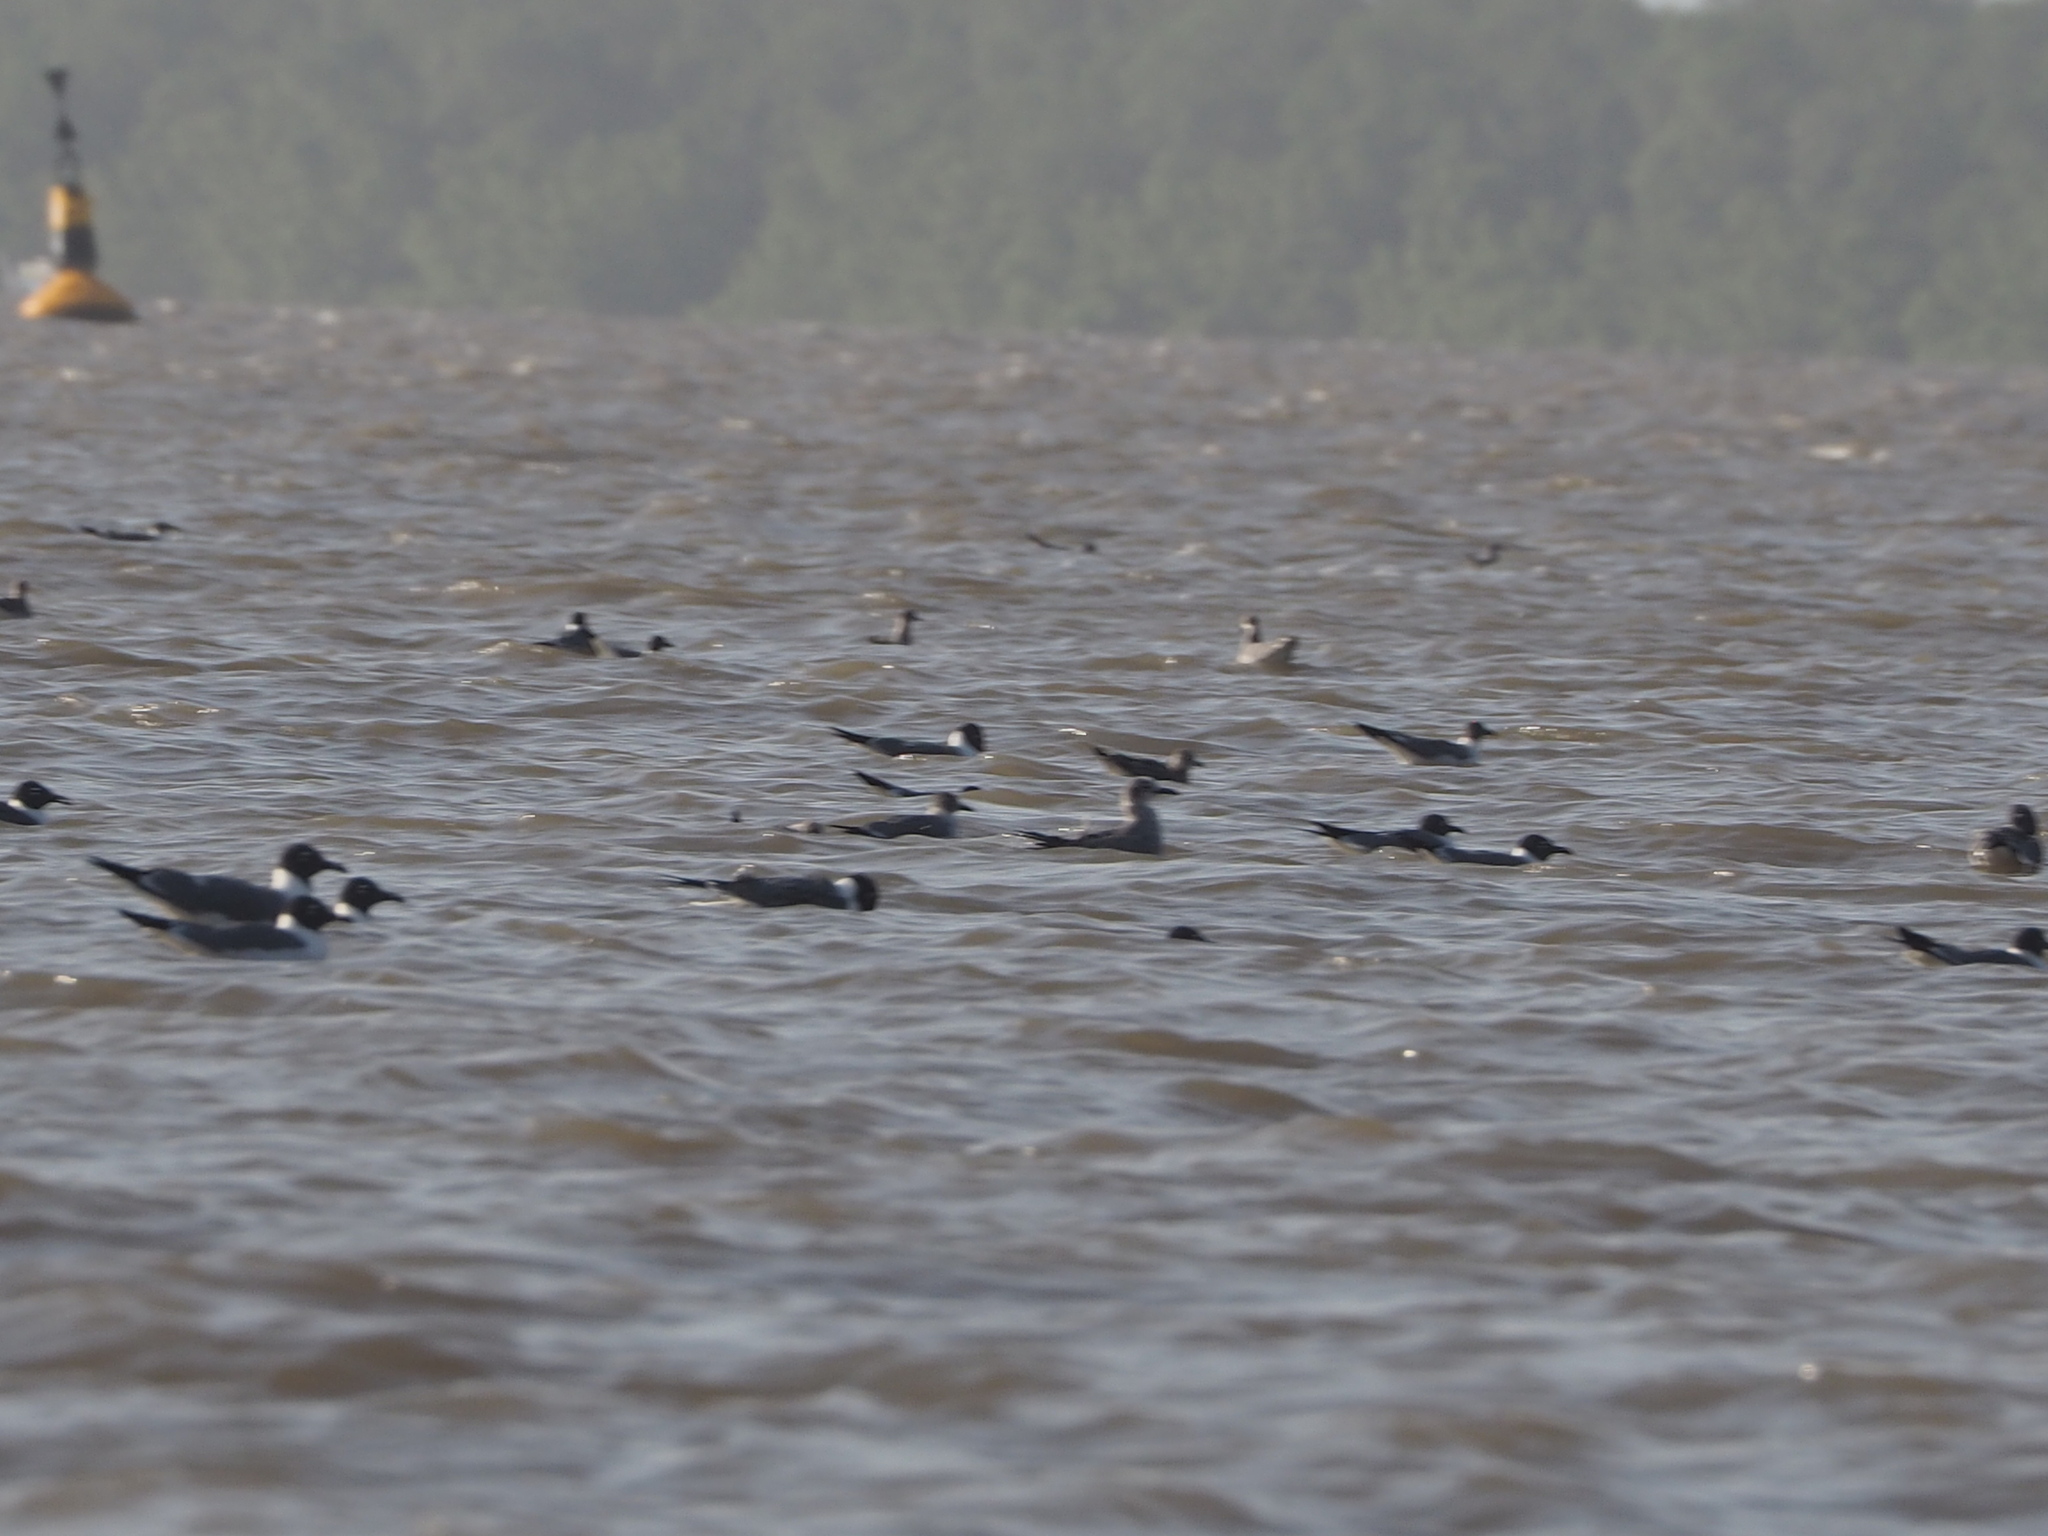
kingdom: Animalia
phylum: Chordata
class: Aves
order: Charadriiformes
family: Laridae
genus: Leucophaeus
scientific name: Leucophaeus atricilla
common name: Laughing gull
